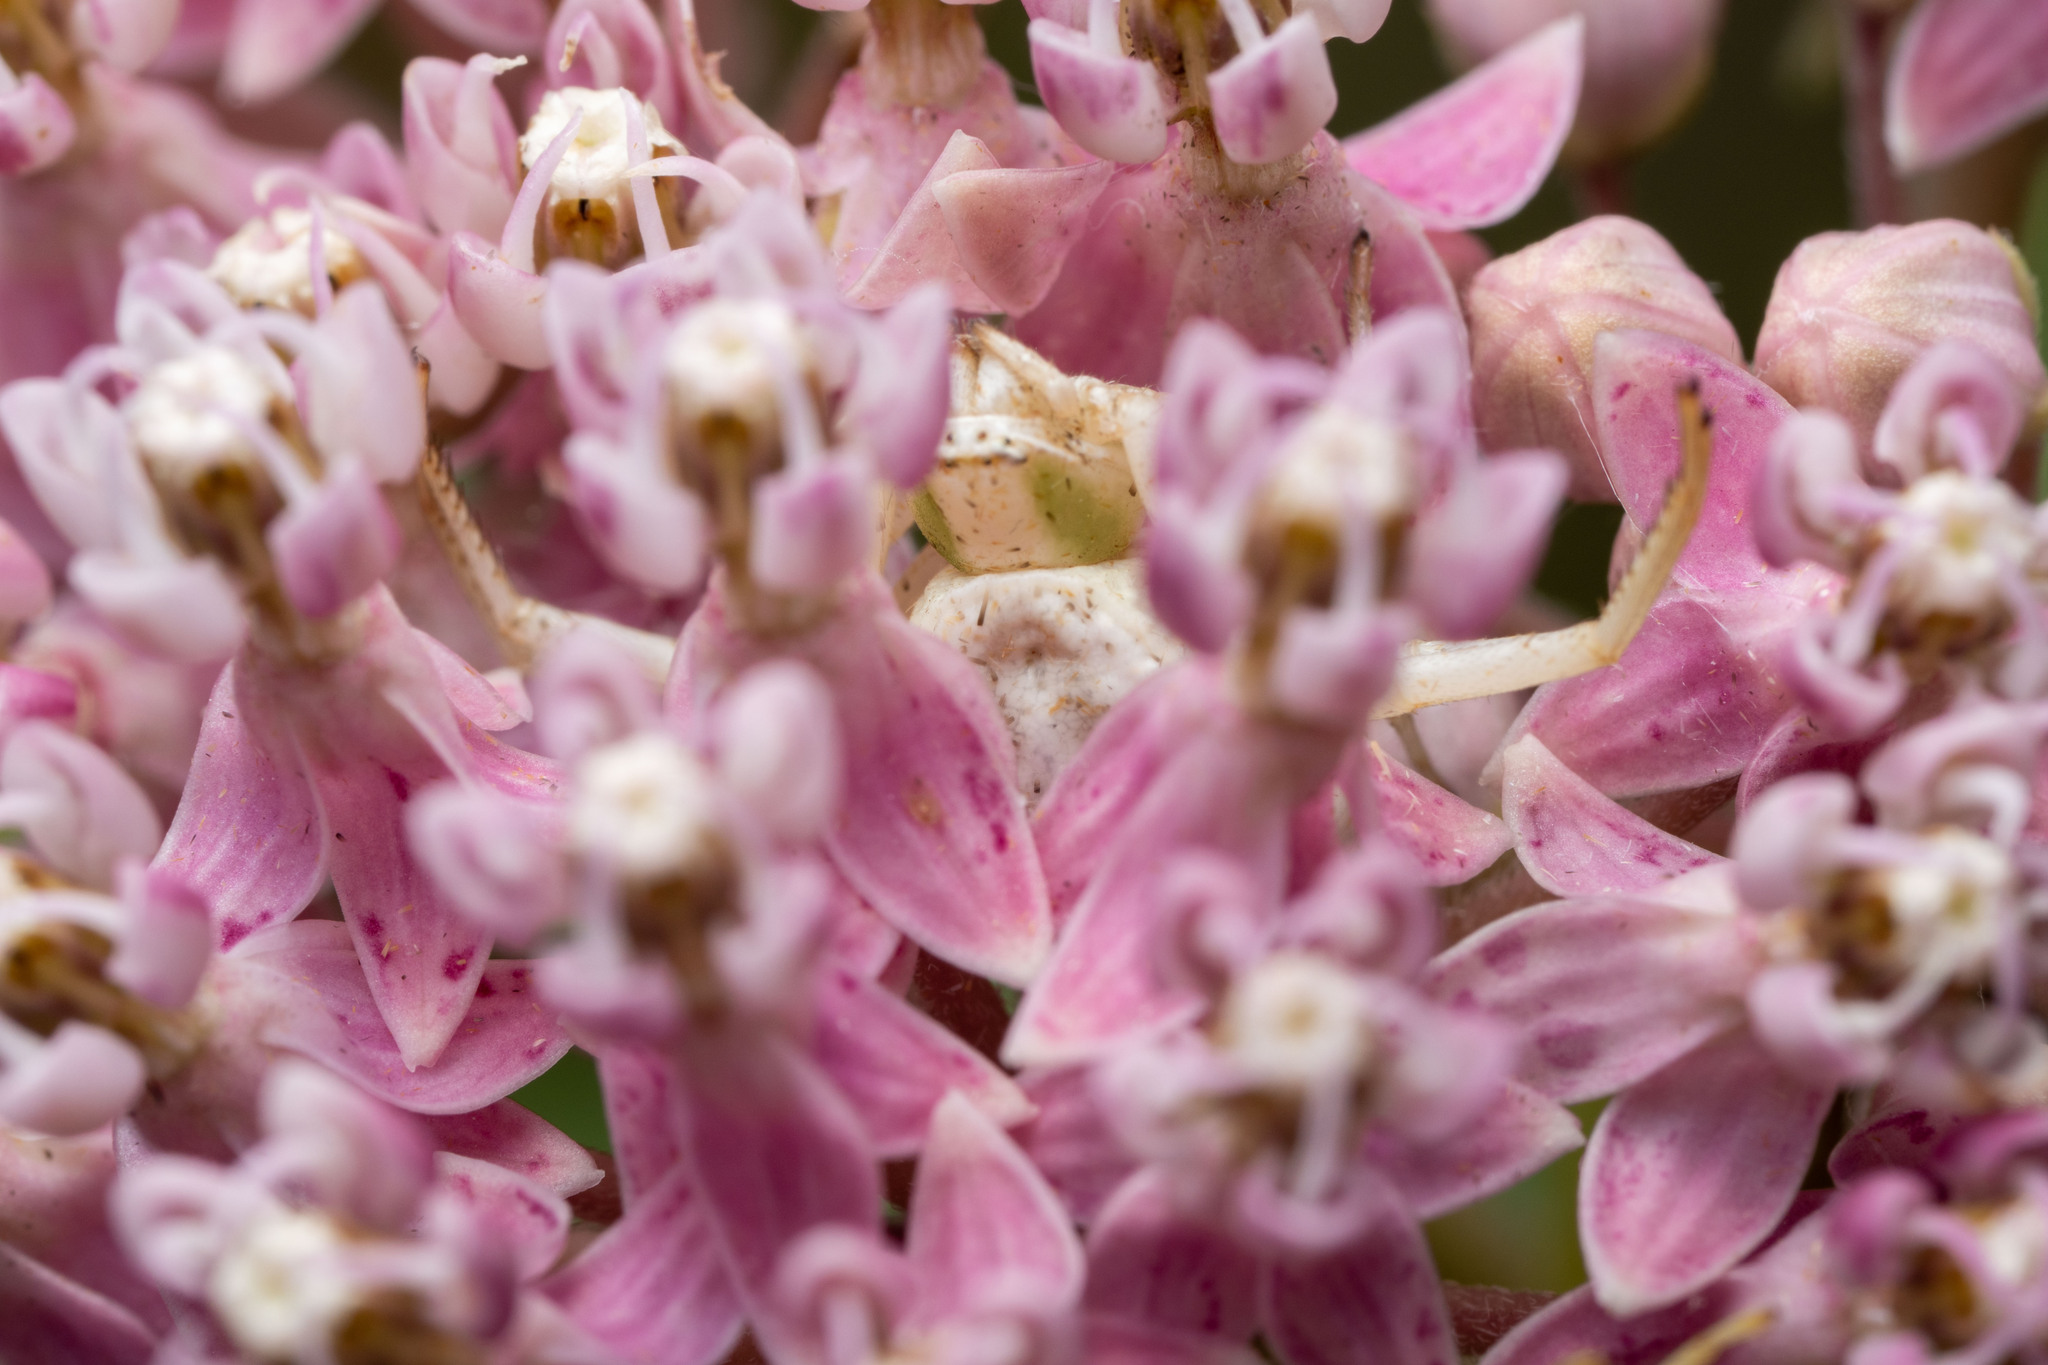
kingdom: Animalia
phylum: Arthropoda
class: Arachnida
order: Araneae
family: Thomisidae
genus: Misumenoides
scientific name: Misumenoides formosipes
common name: White-banded crab spider
